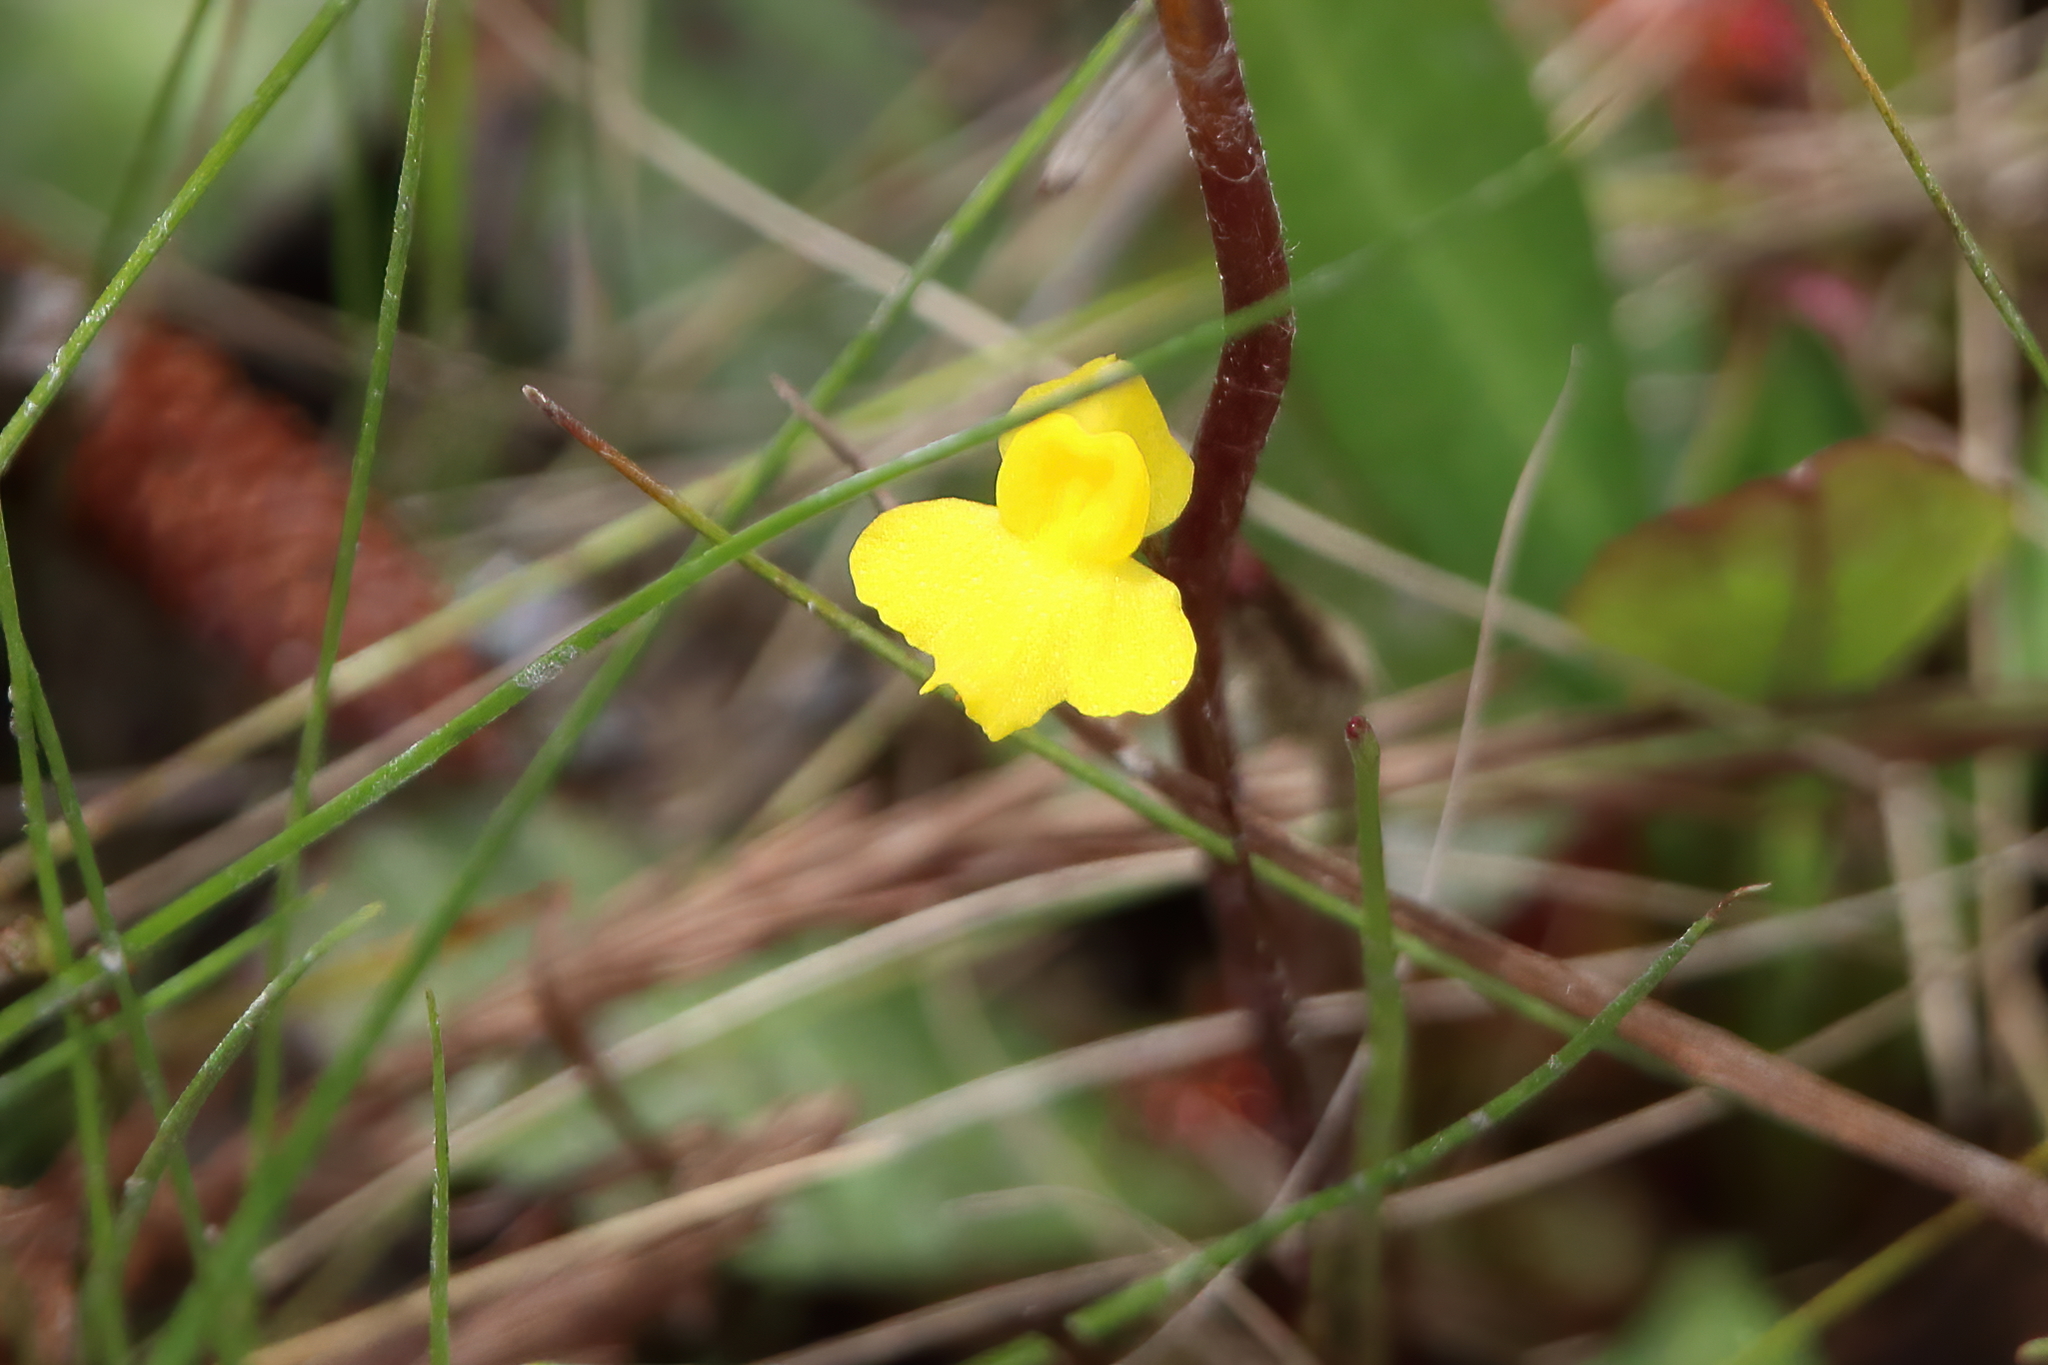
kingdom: Plantae
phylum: Tracheophyta
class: Magnoliopsida
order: Lamiales
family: Lentibulariaceae
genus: Utricularia
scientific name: Utricularia subulata
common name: Tiny bladderwort
